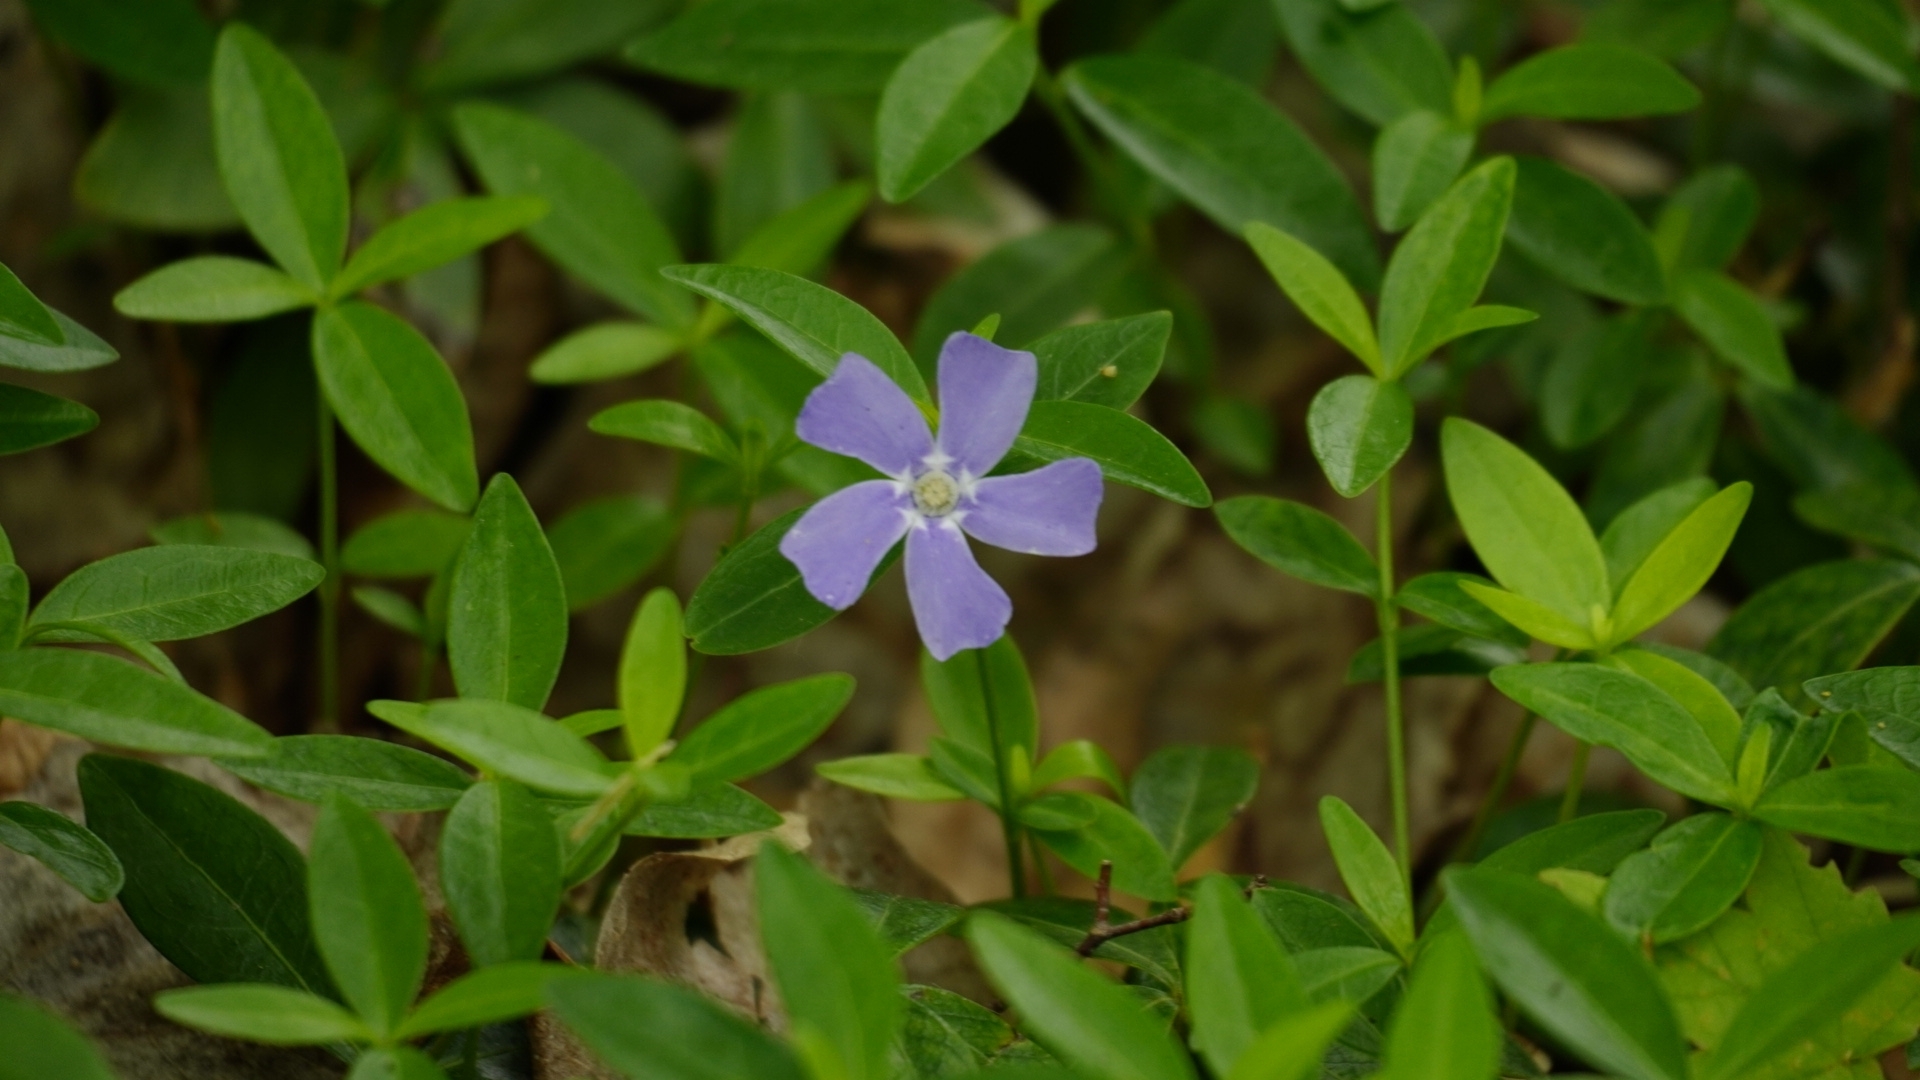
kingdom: Plantae
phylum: Tracheophyta
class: Magnoliopsida
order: Gentianales
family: Apocynaceae
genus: Vinca
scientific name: Vinca minor
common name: Lesser periwinkle
